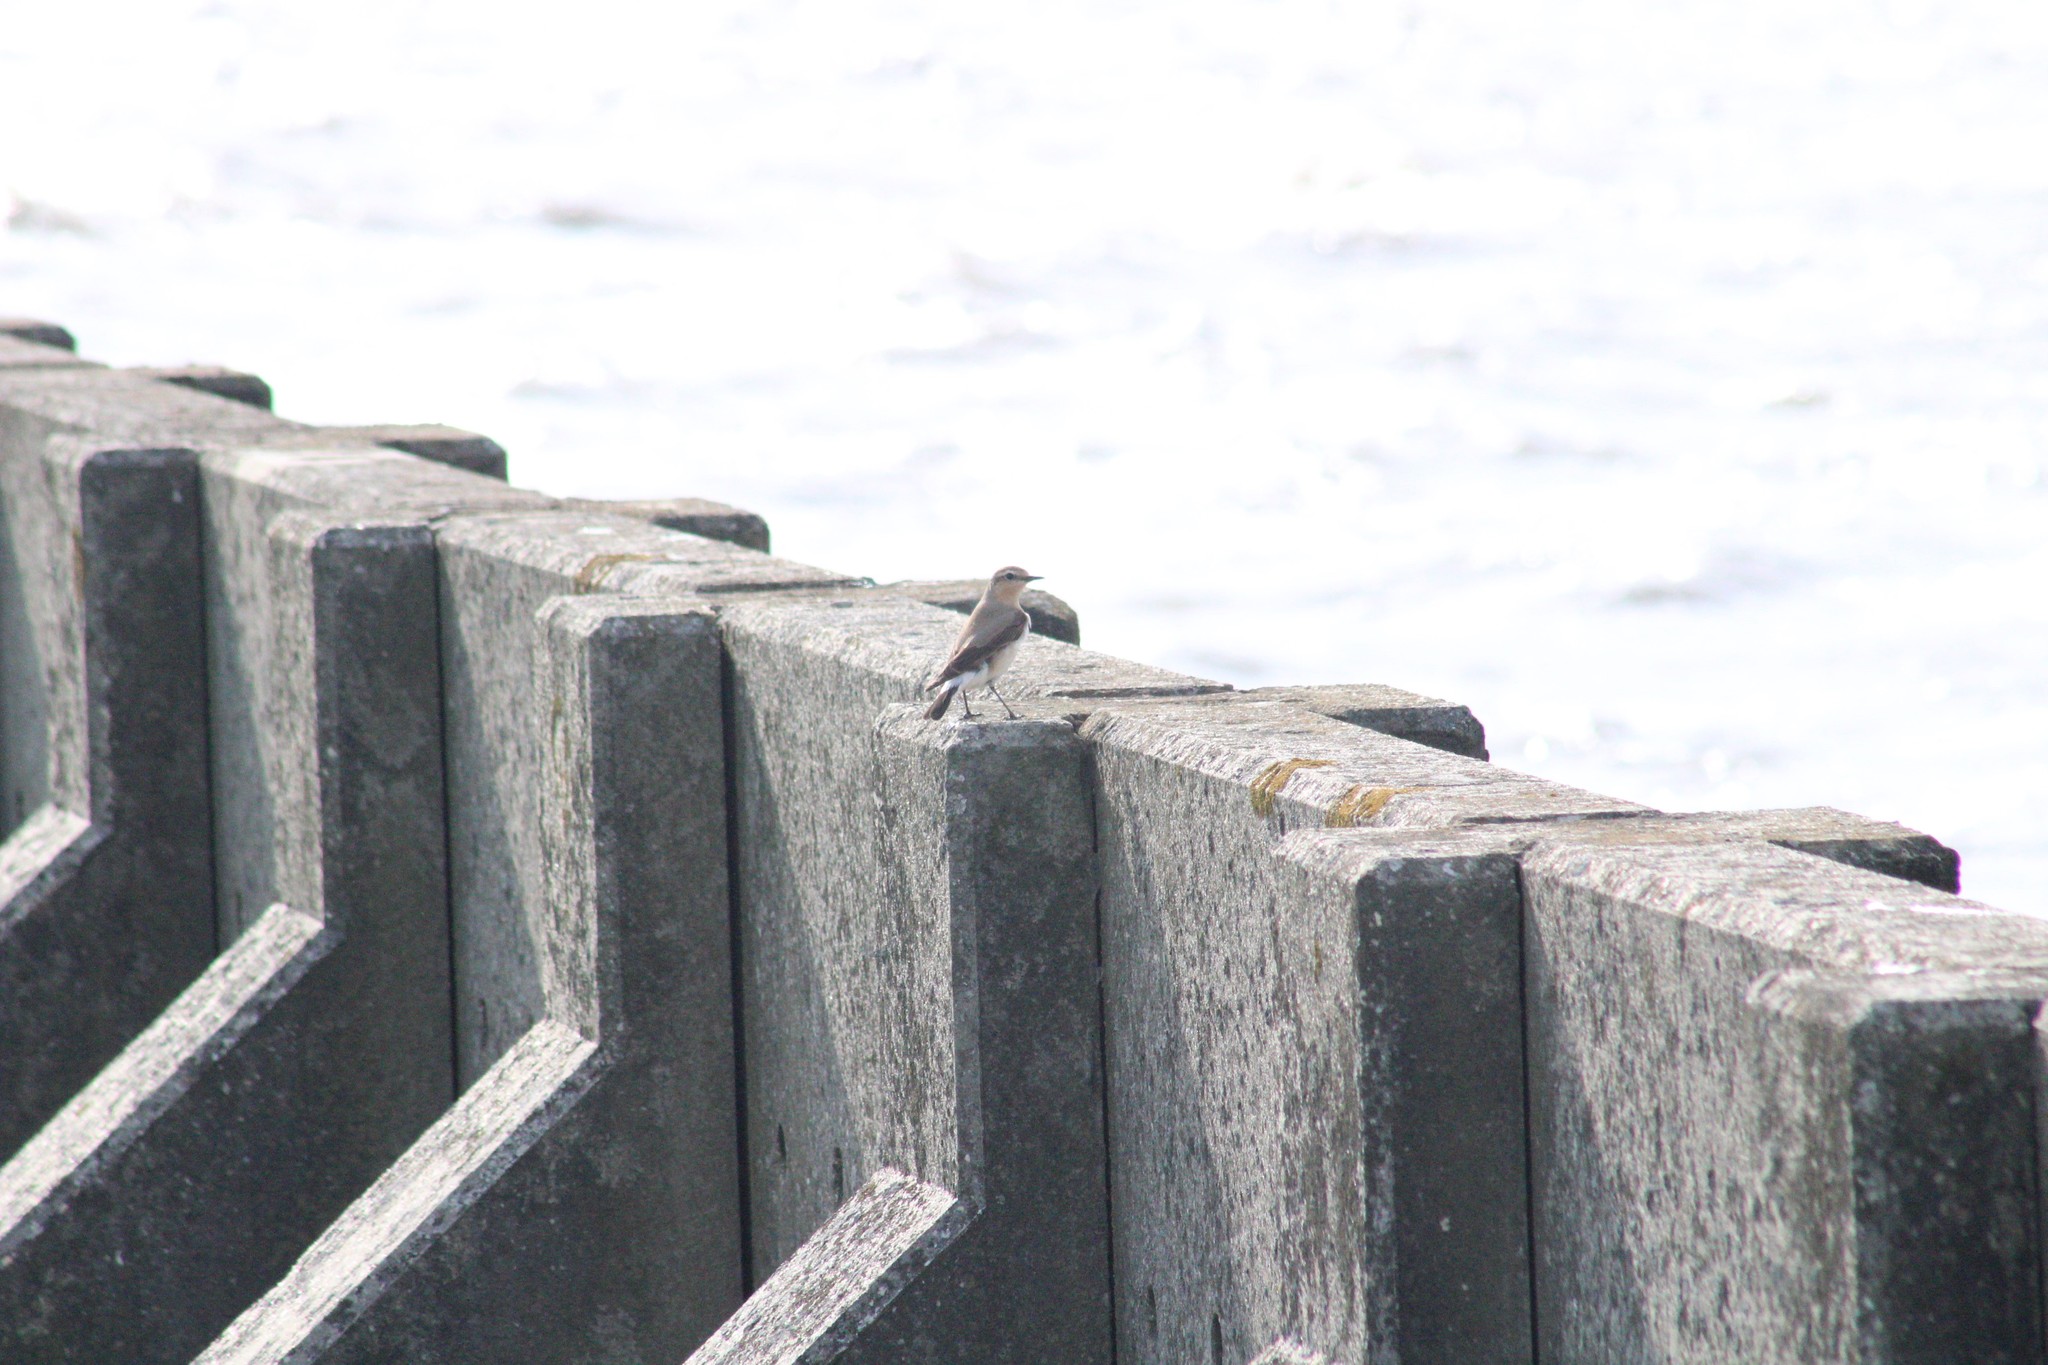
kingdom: Animalia
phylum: Chordata
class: Aves
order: Passeriformes
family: Muscicapidae
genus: Oenanthe
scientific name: Oenanthe oenanthe
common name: Northern wheatear
